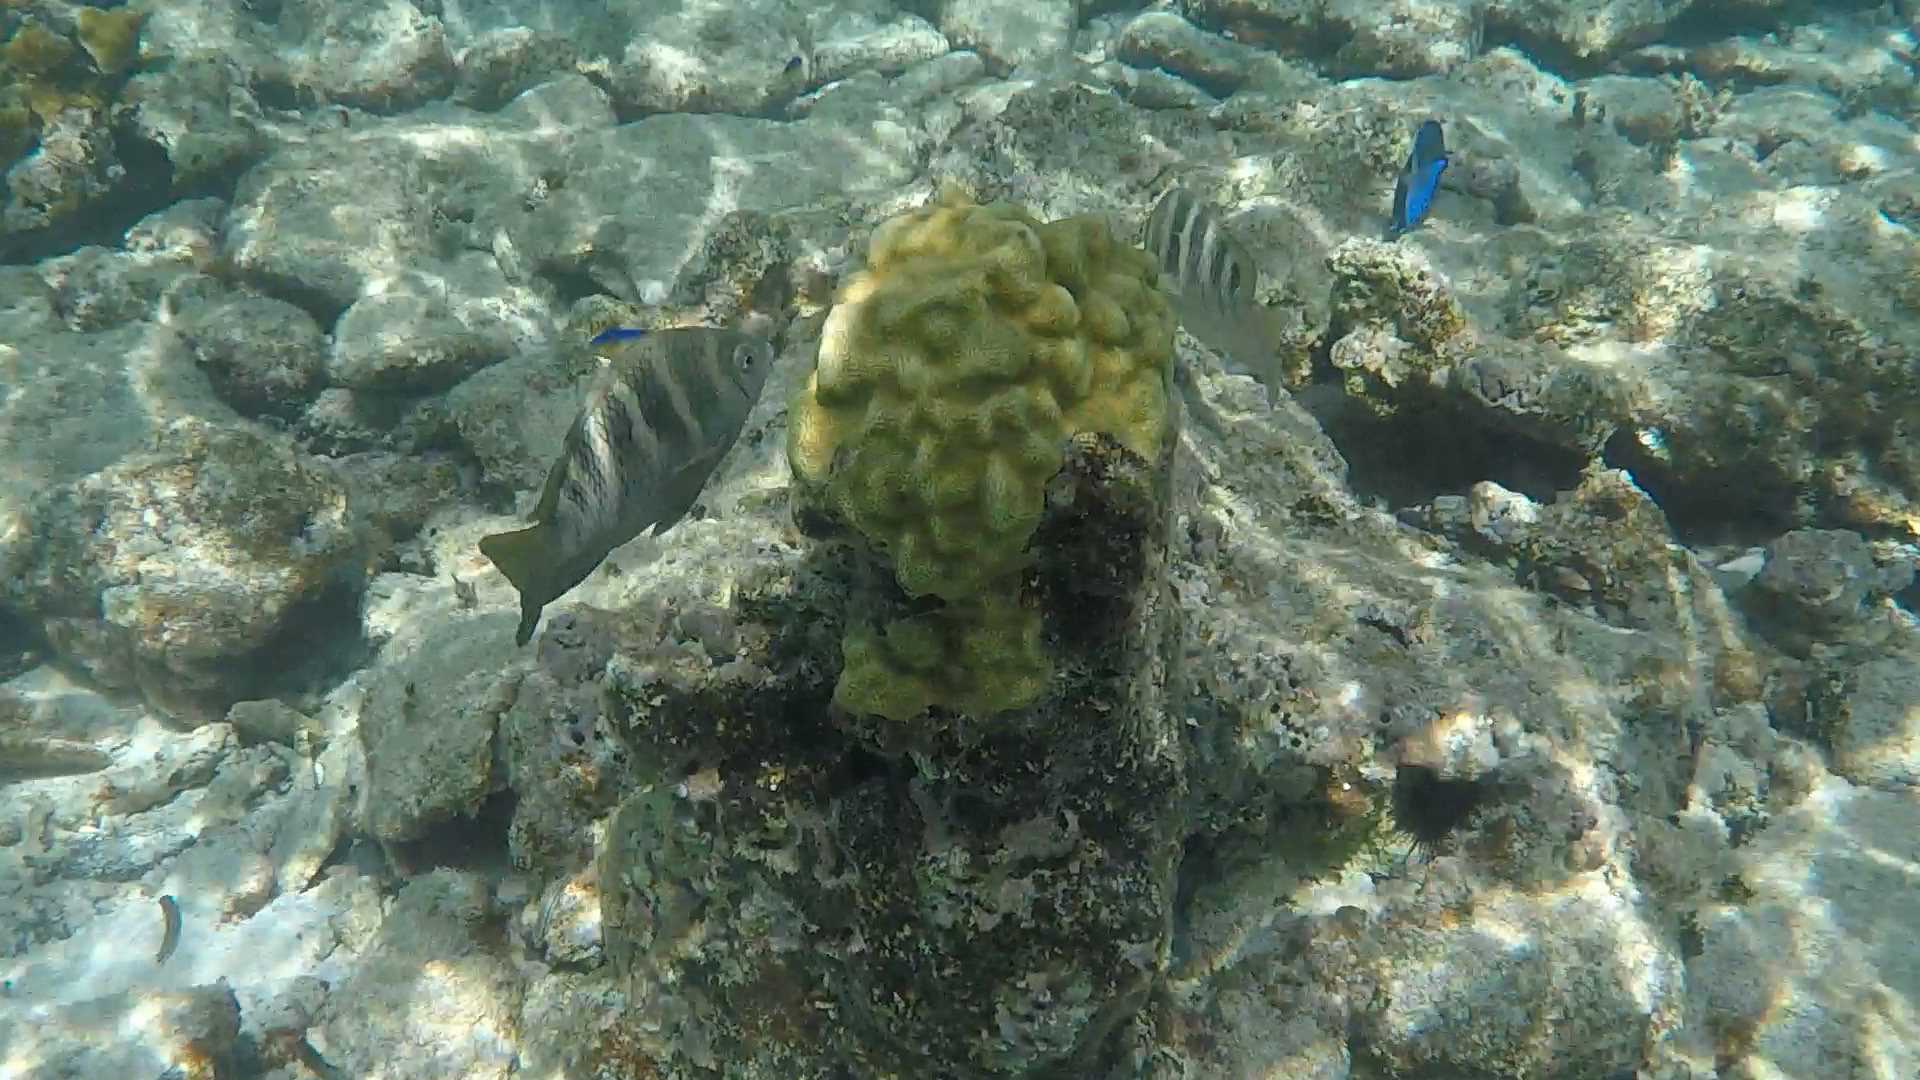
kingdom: Animalia
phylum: Chordata
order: Perciformes
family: Pomacentridae
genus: Abudefduf
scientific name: Abudefduf taurus
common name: Night sergeant
